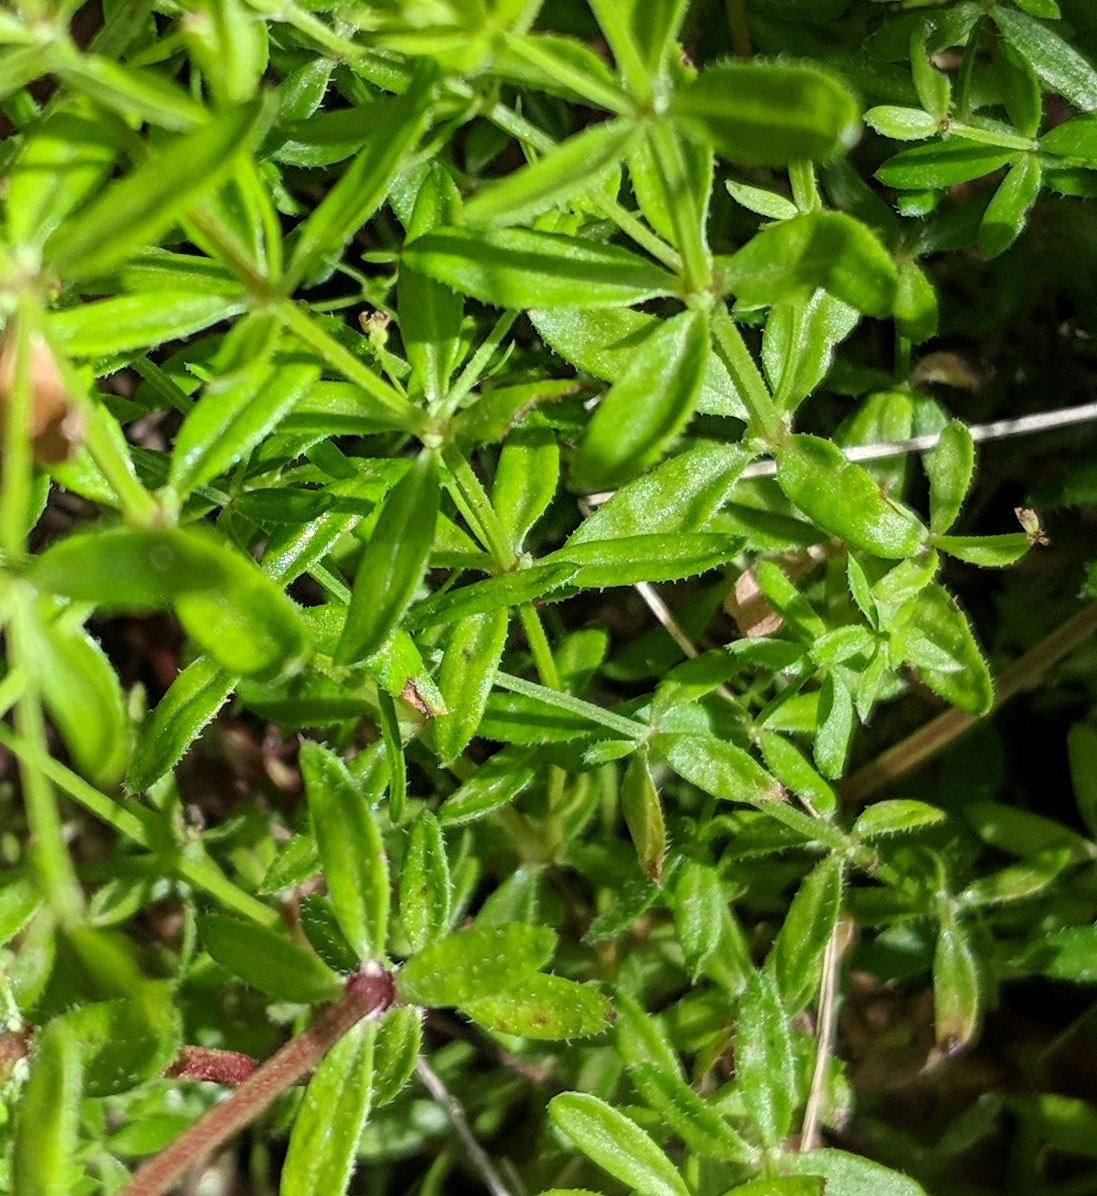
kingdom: Plantae
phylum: Tracheophyta
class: Magnoliopsida
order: Gentianales
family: Rubiaceae
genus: Galium
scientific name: Galium porrigens
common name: Climbing bedstraw
